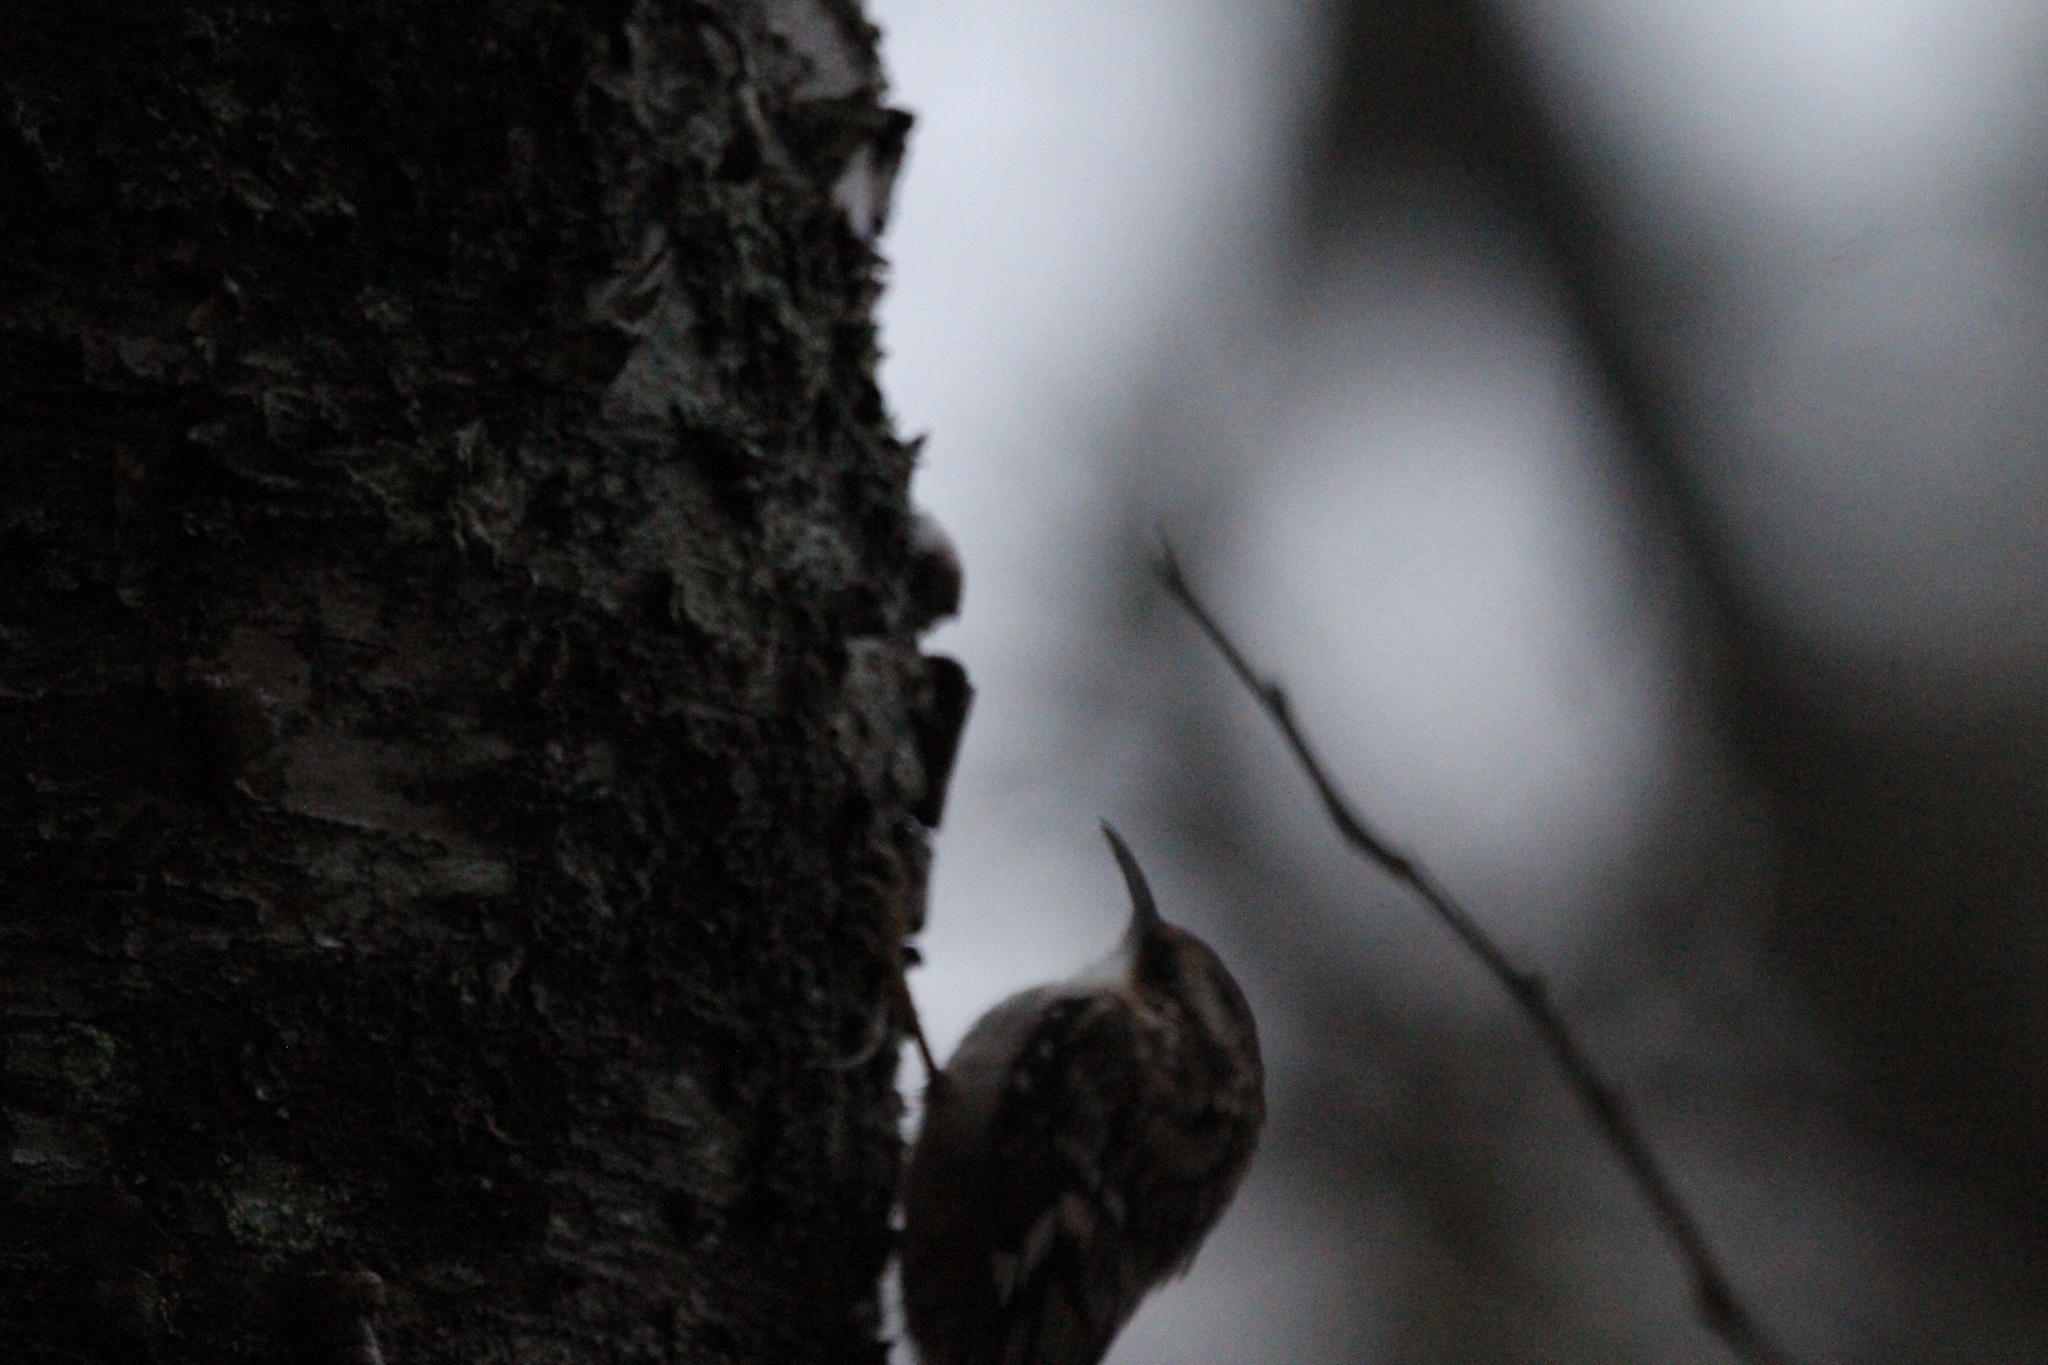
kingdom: Animalia
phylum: Chordata
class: Aves
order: Passeriformes
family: Certhiidae
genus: Certhia
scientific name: Certhia americana
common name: Brown creeper
